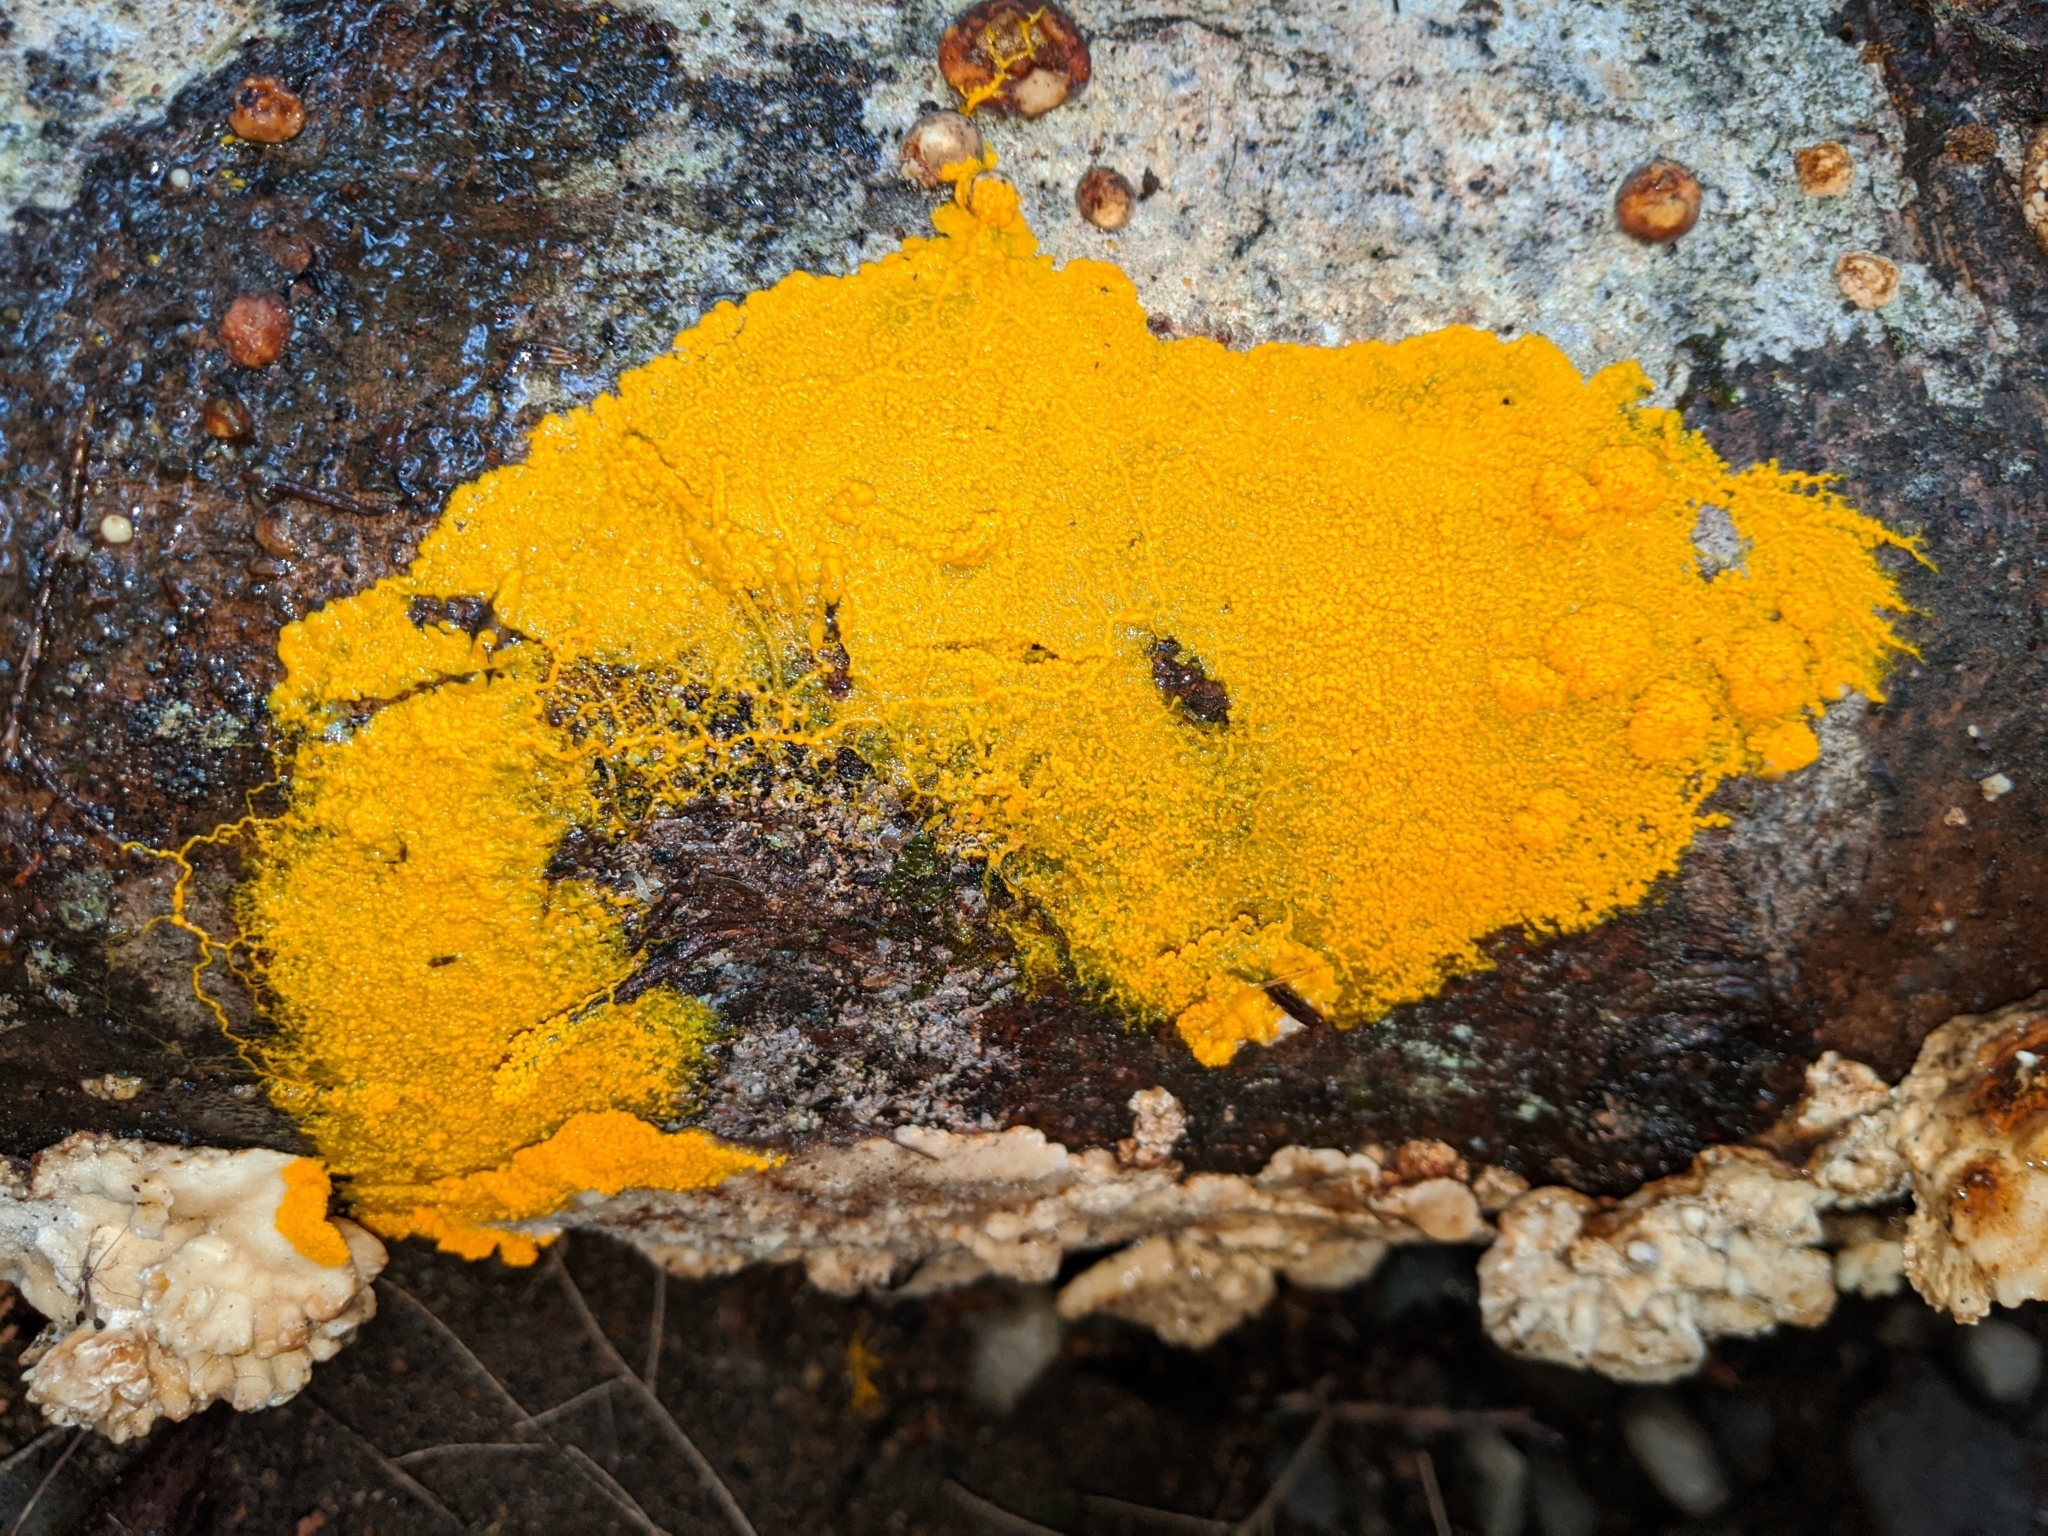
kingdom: Protozoa
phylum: Mycetozoa
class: Myxomycetes
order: Physarales
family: Physaraceae
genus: Badhamia
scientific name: Badhamia utricularis
